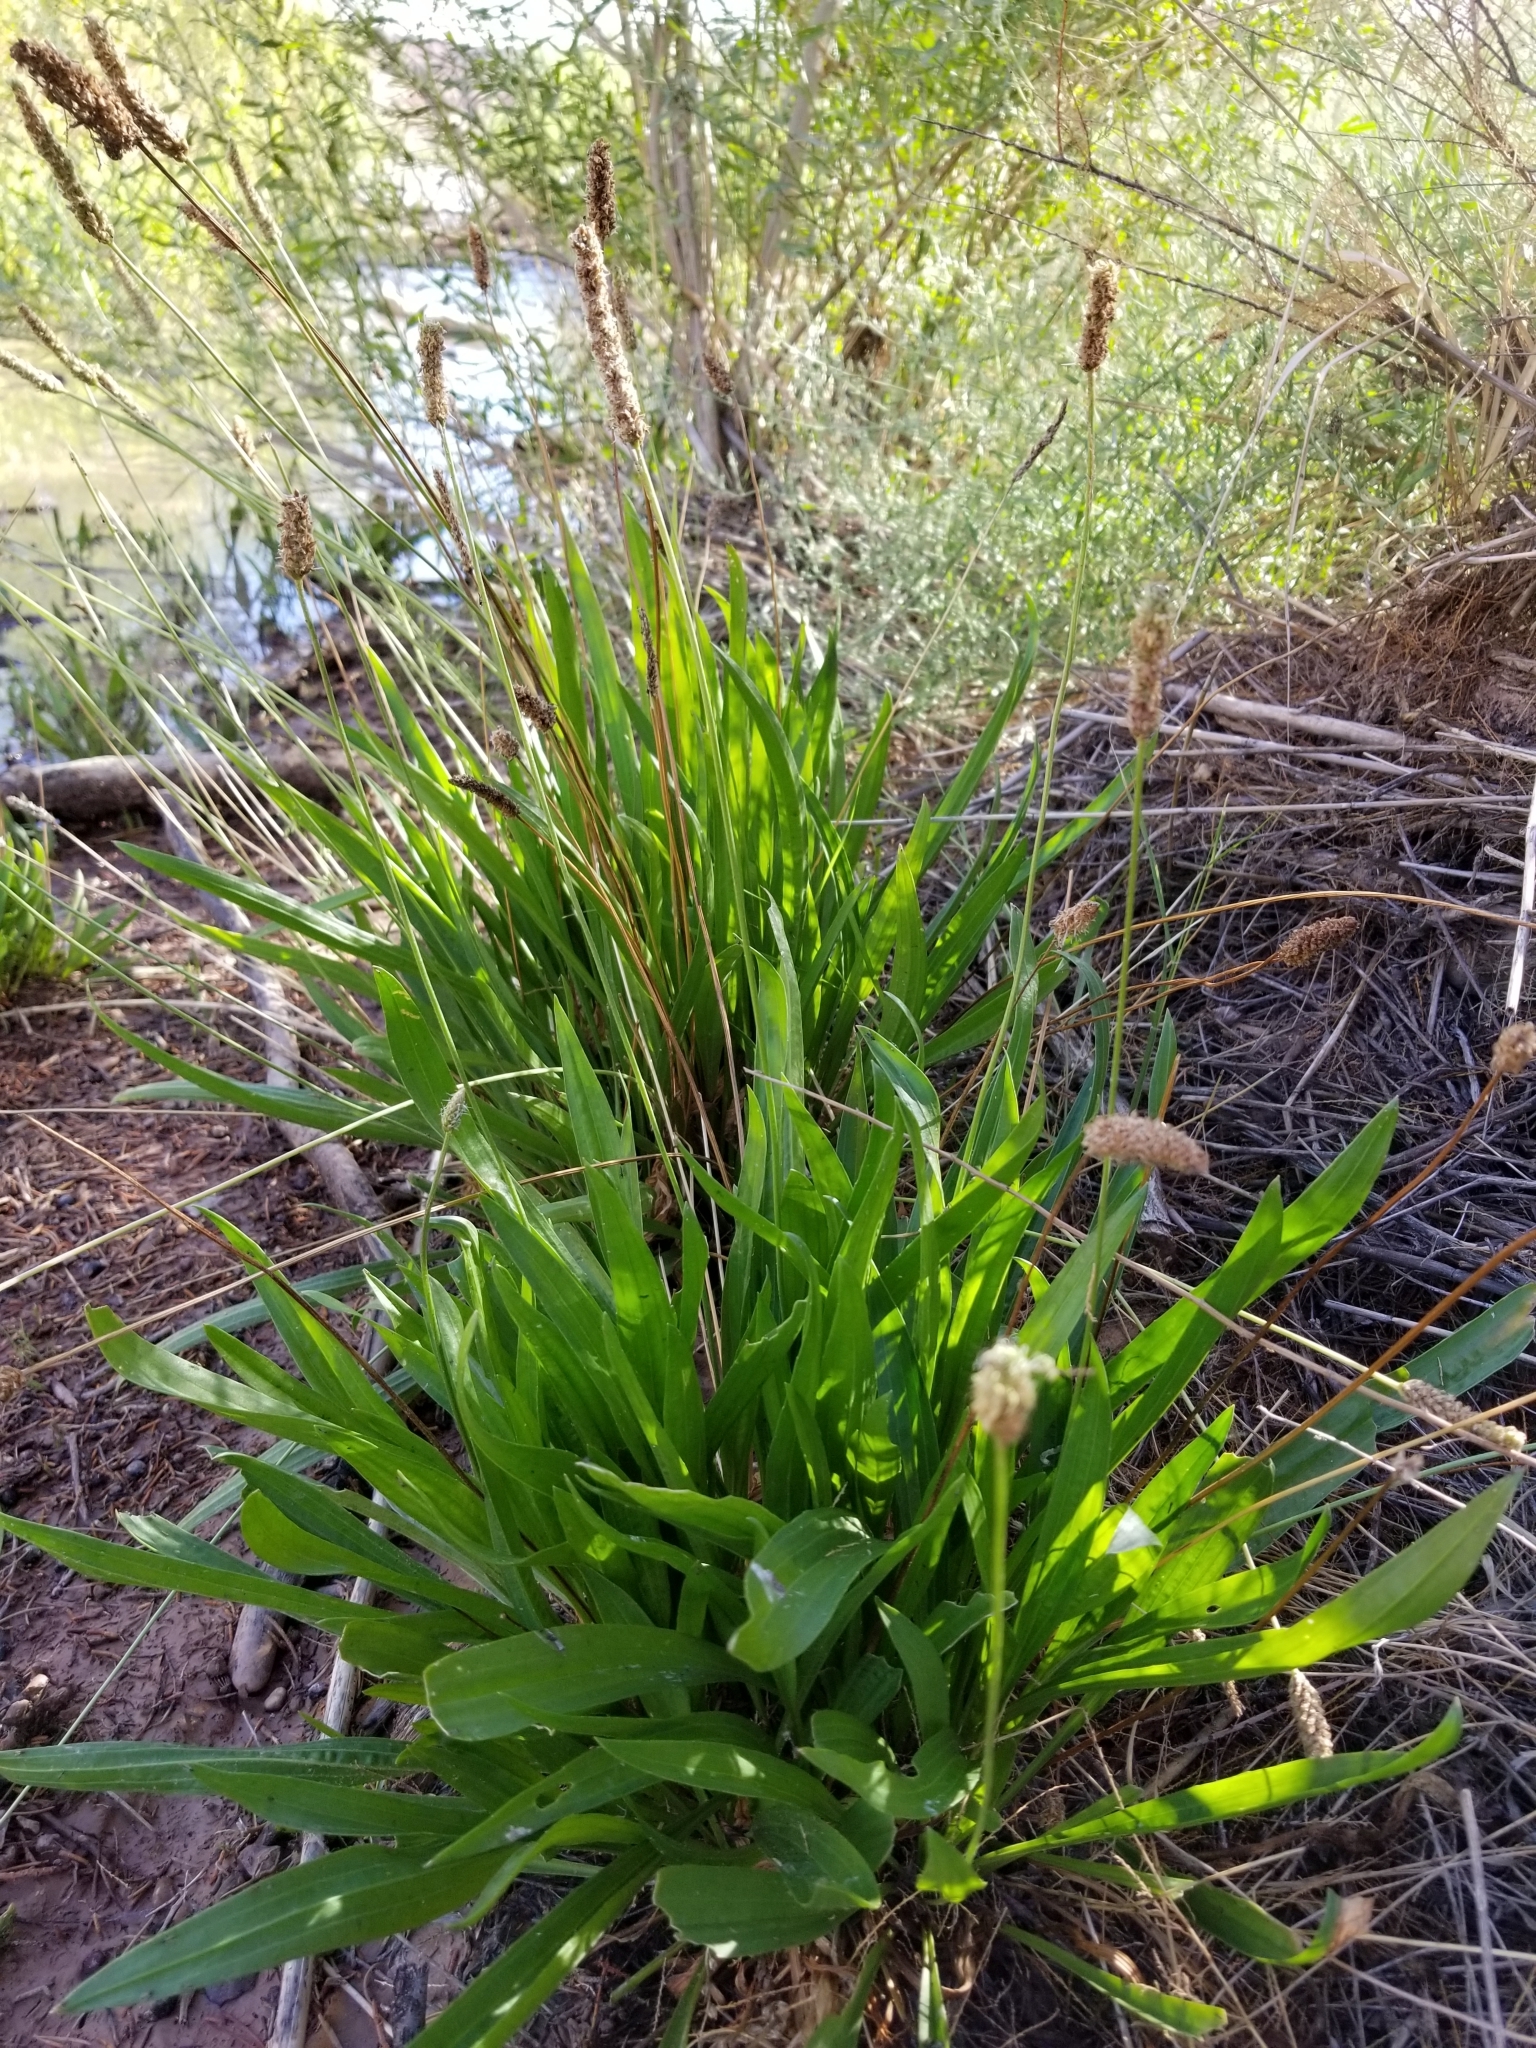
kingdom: Plantae
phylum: Tracheophyta
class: Magnoliopsida
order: Lamiales
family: Plantaginaceae
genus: Plantago
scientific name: Plantago lanceolata
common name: Ribwort plantain
